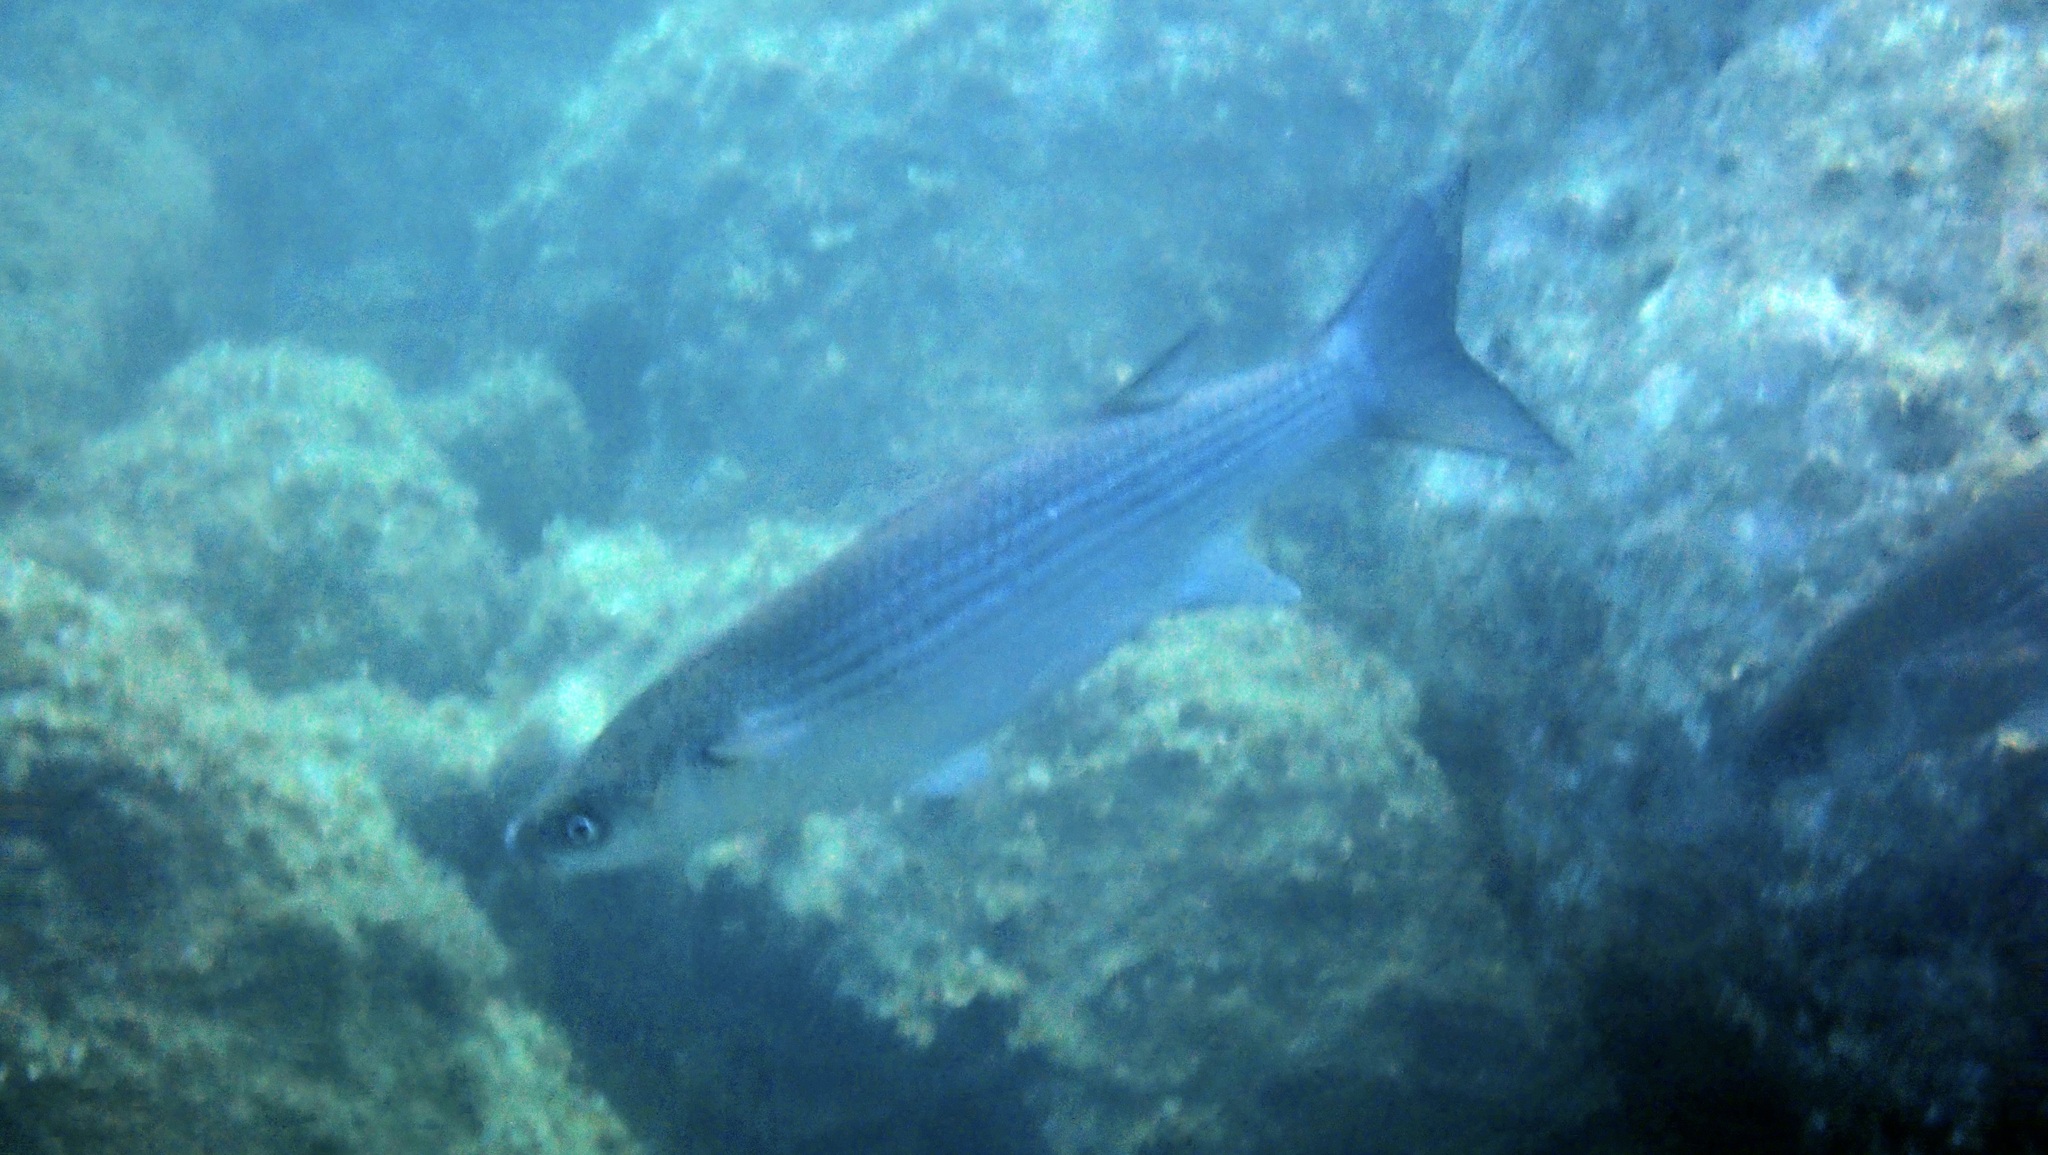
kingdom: Animalia
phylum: Chordata
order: Mugiliformes
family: Mugilidae
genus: Chelon
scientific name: Chelon labrosus
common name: Thick-lipped mullet
